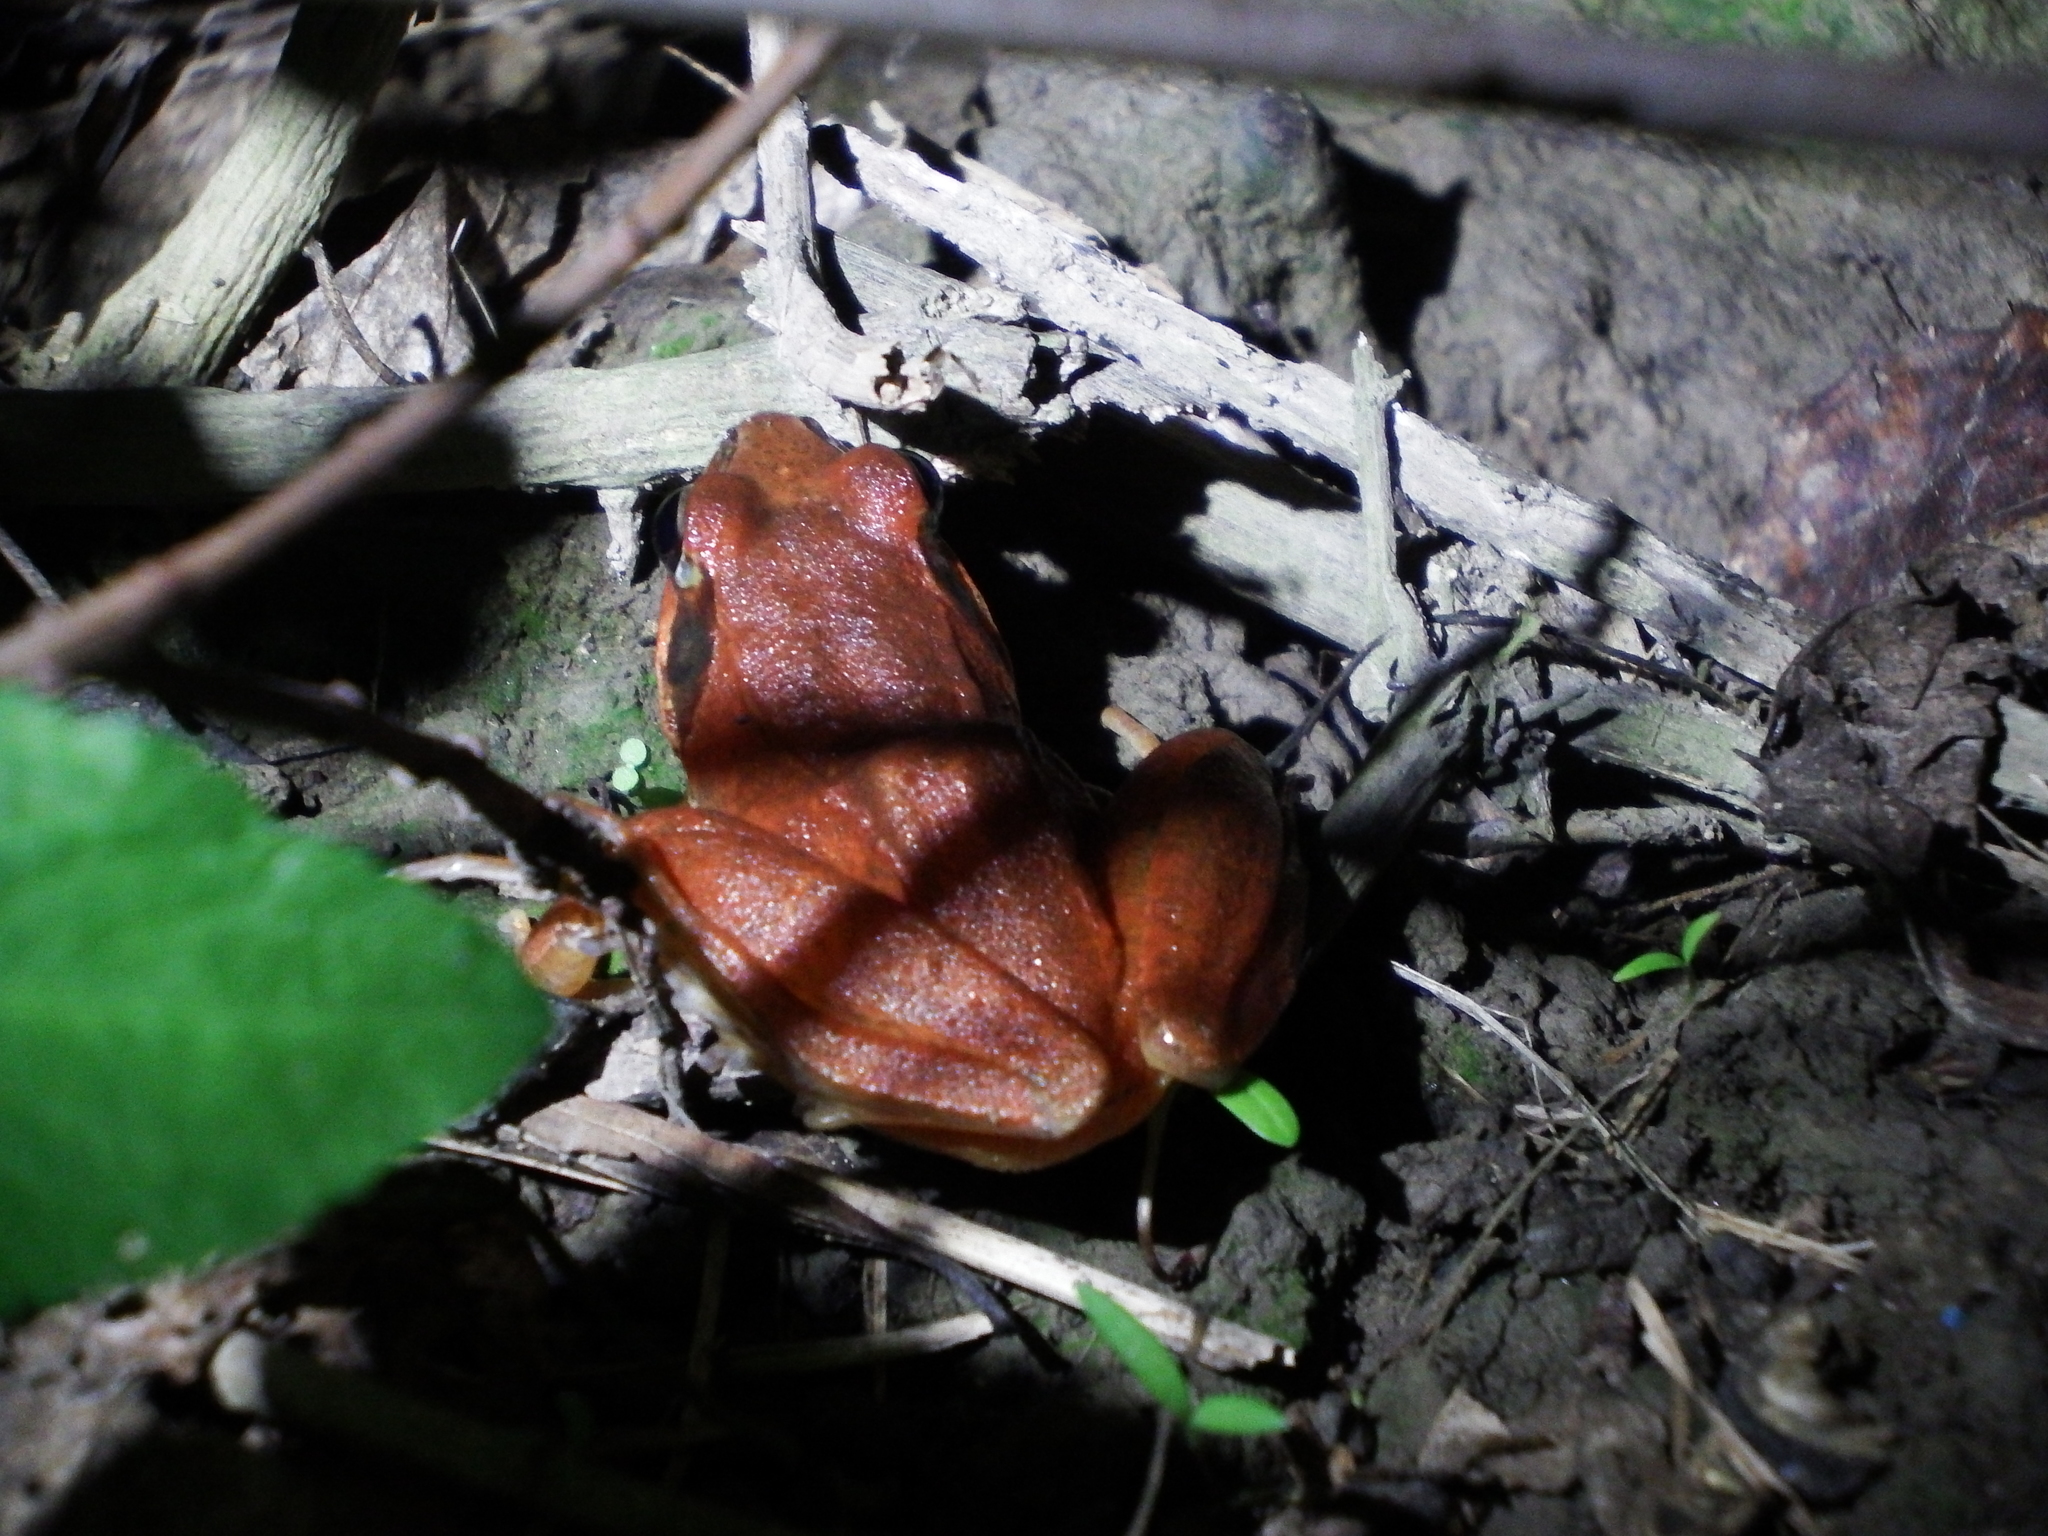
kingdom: Animalia
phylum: Chordata
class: Amphibia
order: Anura
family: Ranidae
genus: Rana
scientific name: Rana longicrus
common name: Long-legged brown frog
